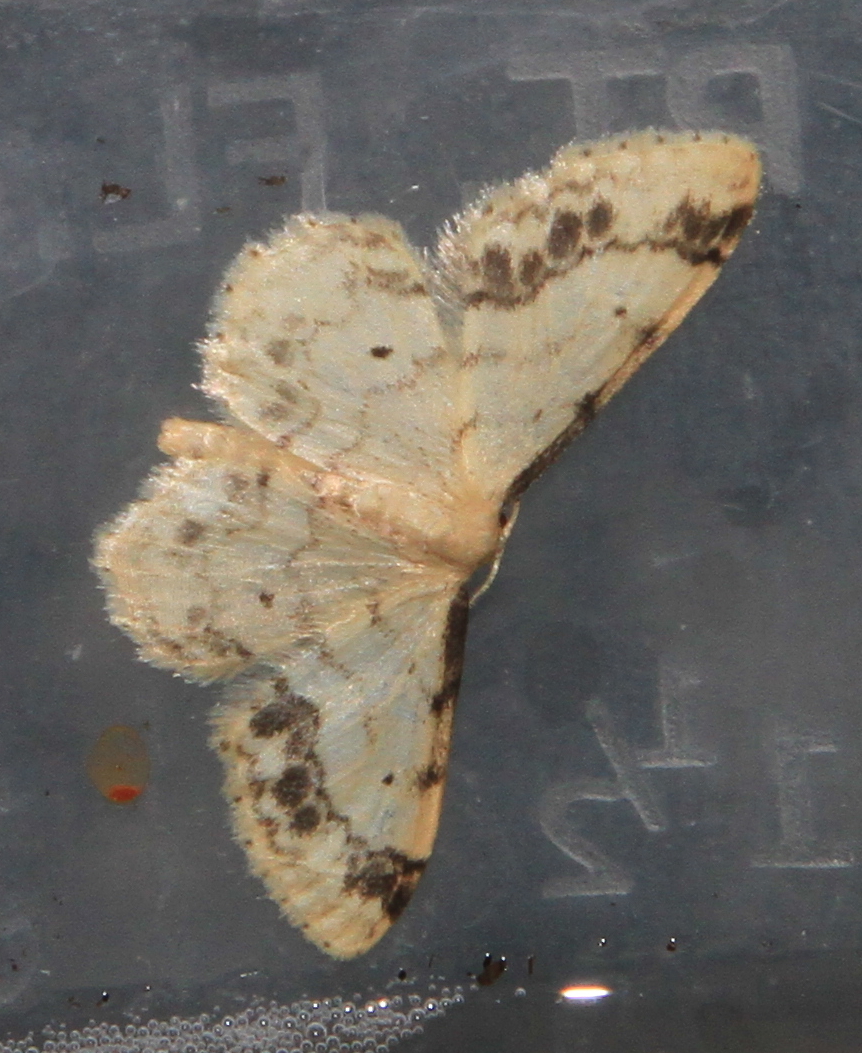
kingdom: Animalia
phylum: Arthropoda
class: Insecta
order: Lepidoptera
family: Geometridae
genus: Idaea
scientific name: Idaea trigeminata
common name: Treble brown spot
